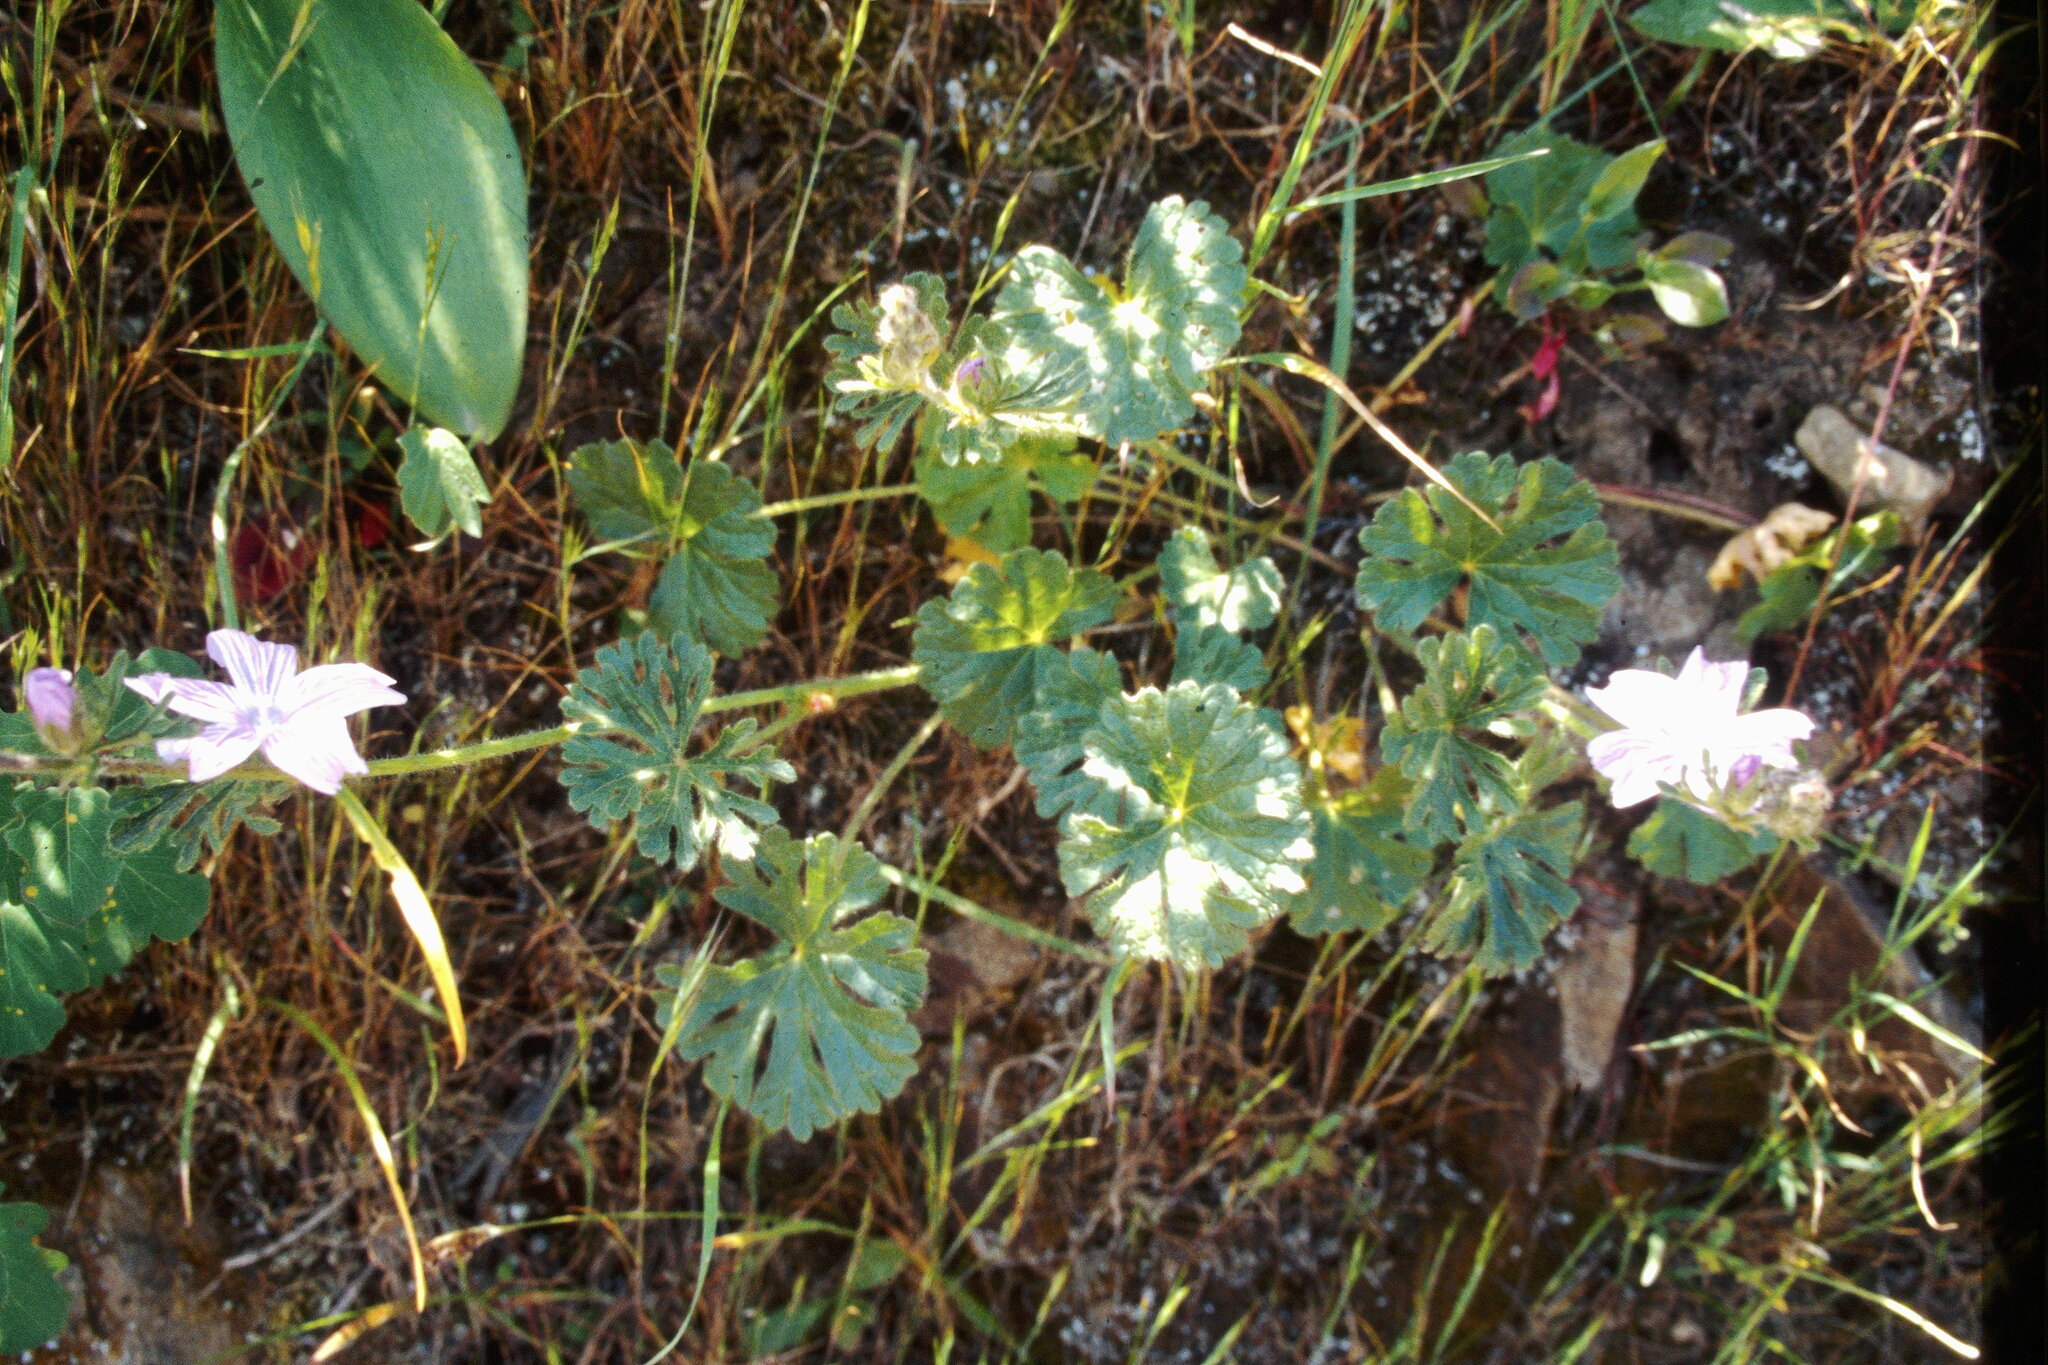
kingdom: Plantae
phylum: Tracheophyta
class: Magnoliopsida
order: Malvales
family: Malvaceae
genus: Sidalcea
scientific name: Sidalcea malviflora
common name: Greek mallow
